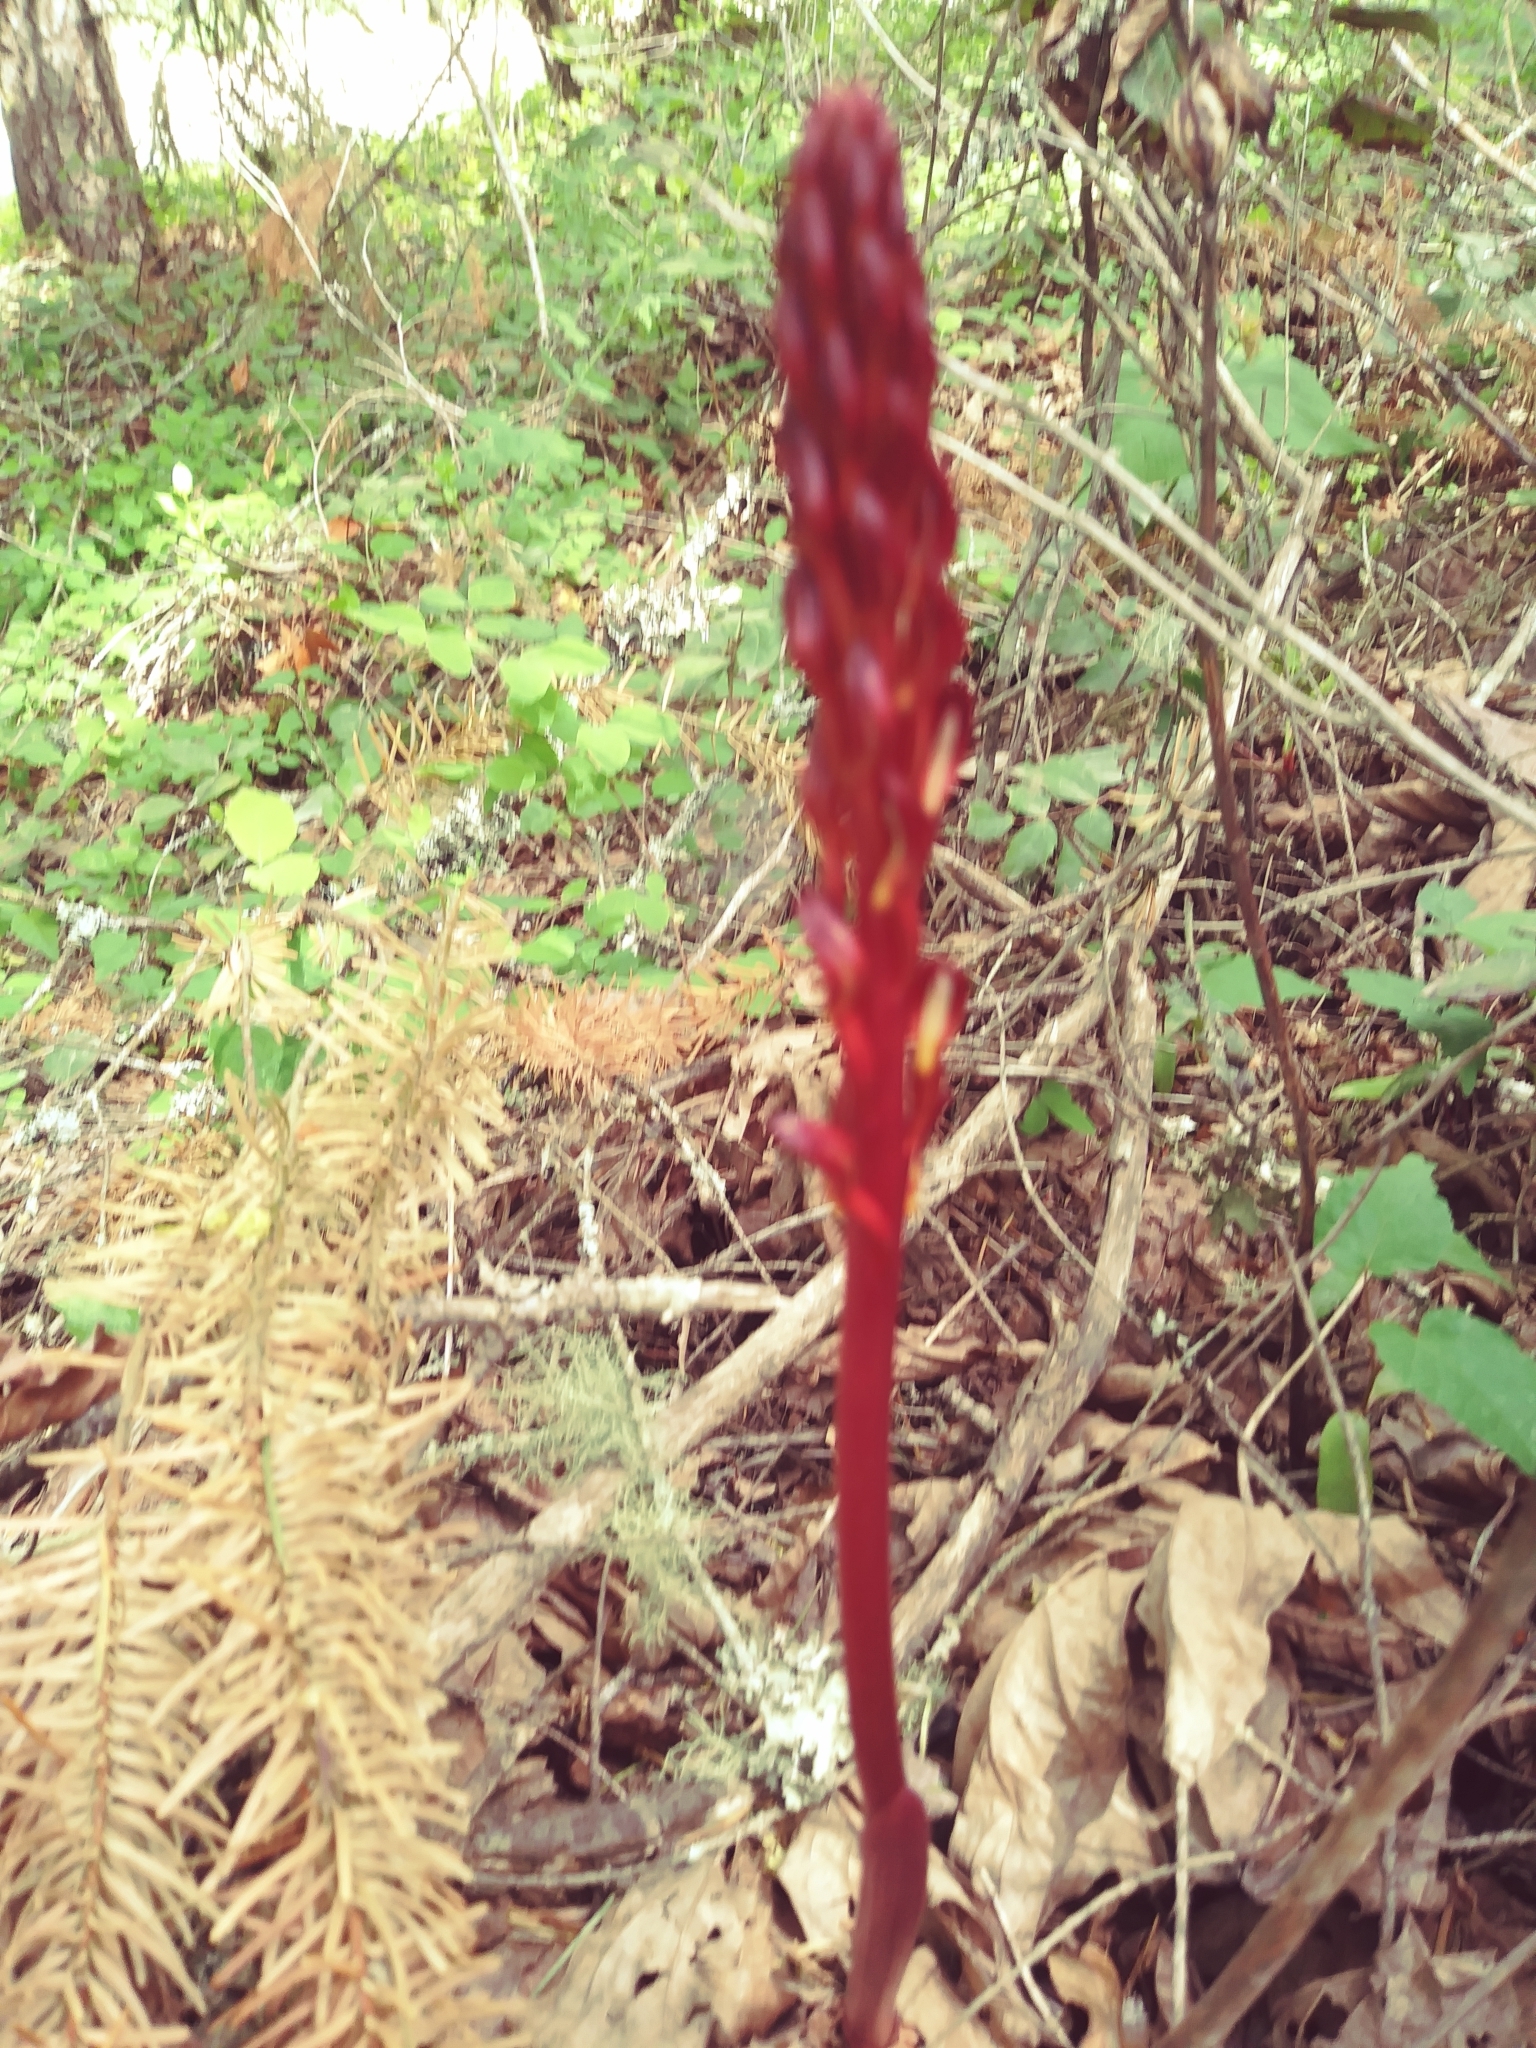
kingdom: Plantae
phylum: Tracheophyta
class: Liliopsida
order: Asparagales
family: Orchidaceae
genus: Corallorhiza
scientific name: Corallorhiza maculata
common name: Spotted coralroot
